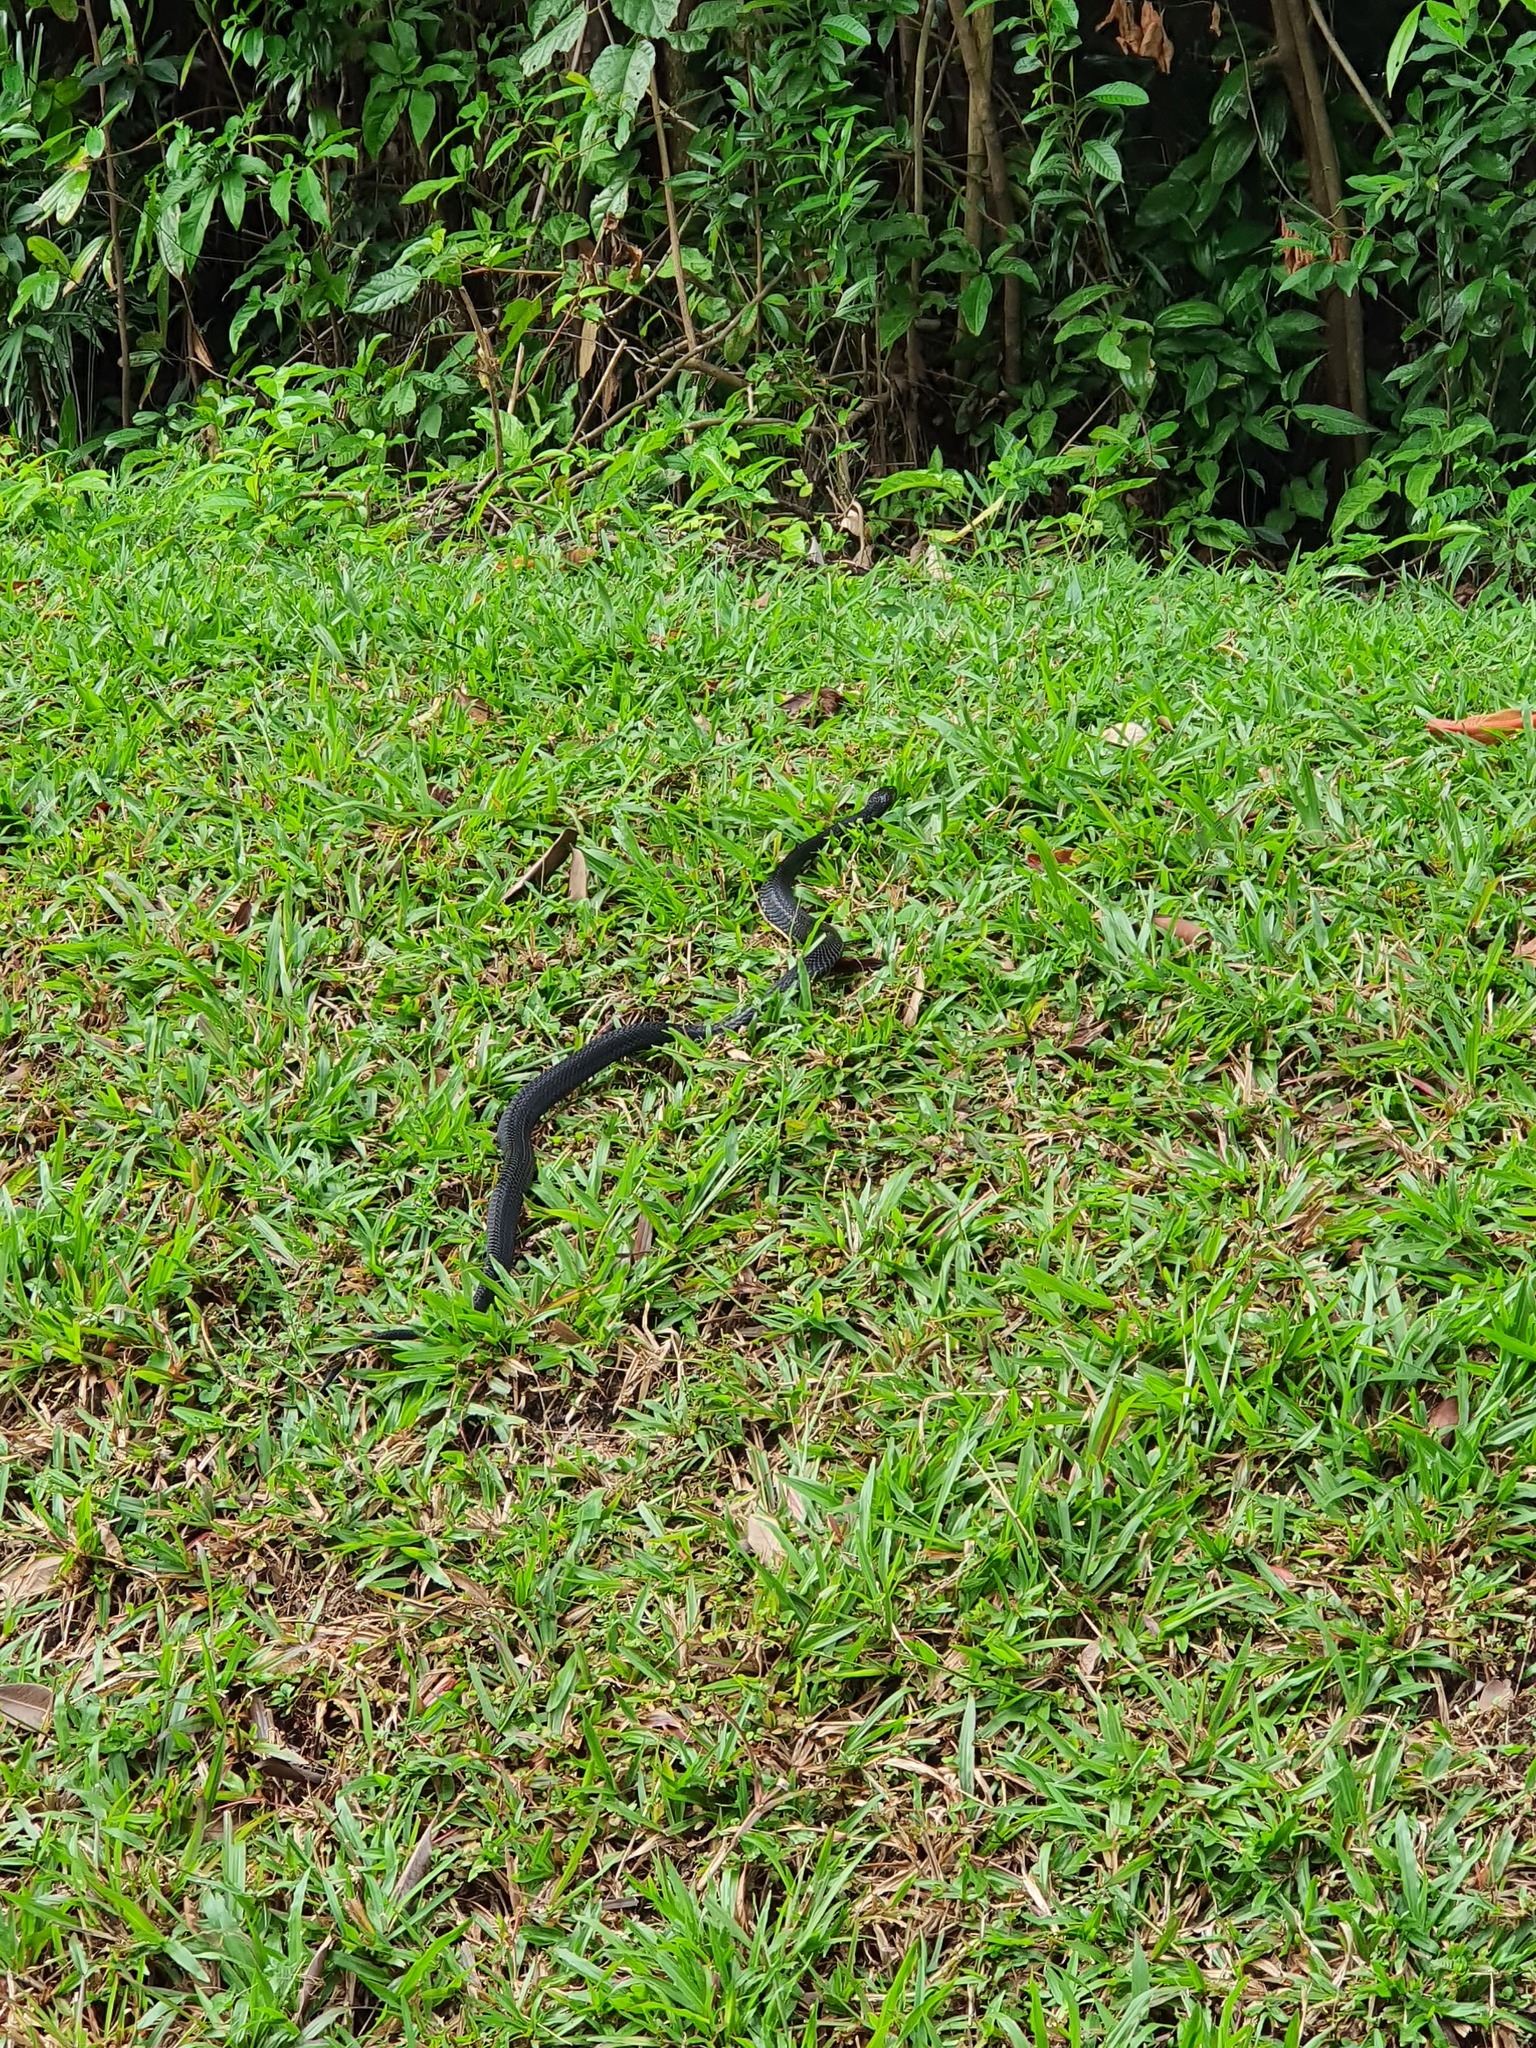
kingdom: Animalia
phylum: Chordata
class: Squamata
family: Elapidae
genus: Naja
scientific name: Naja sumatrana
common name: Equatorial spitting cobra
